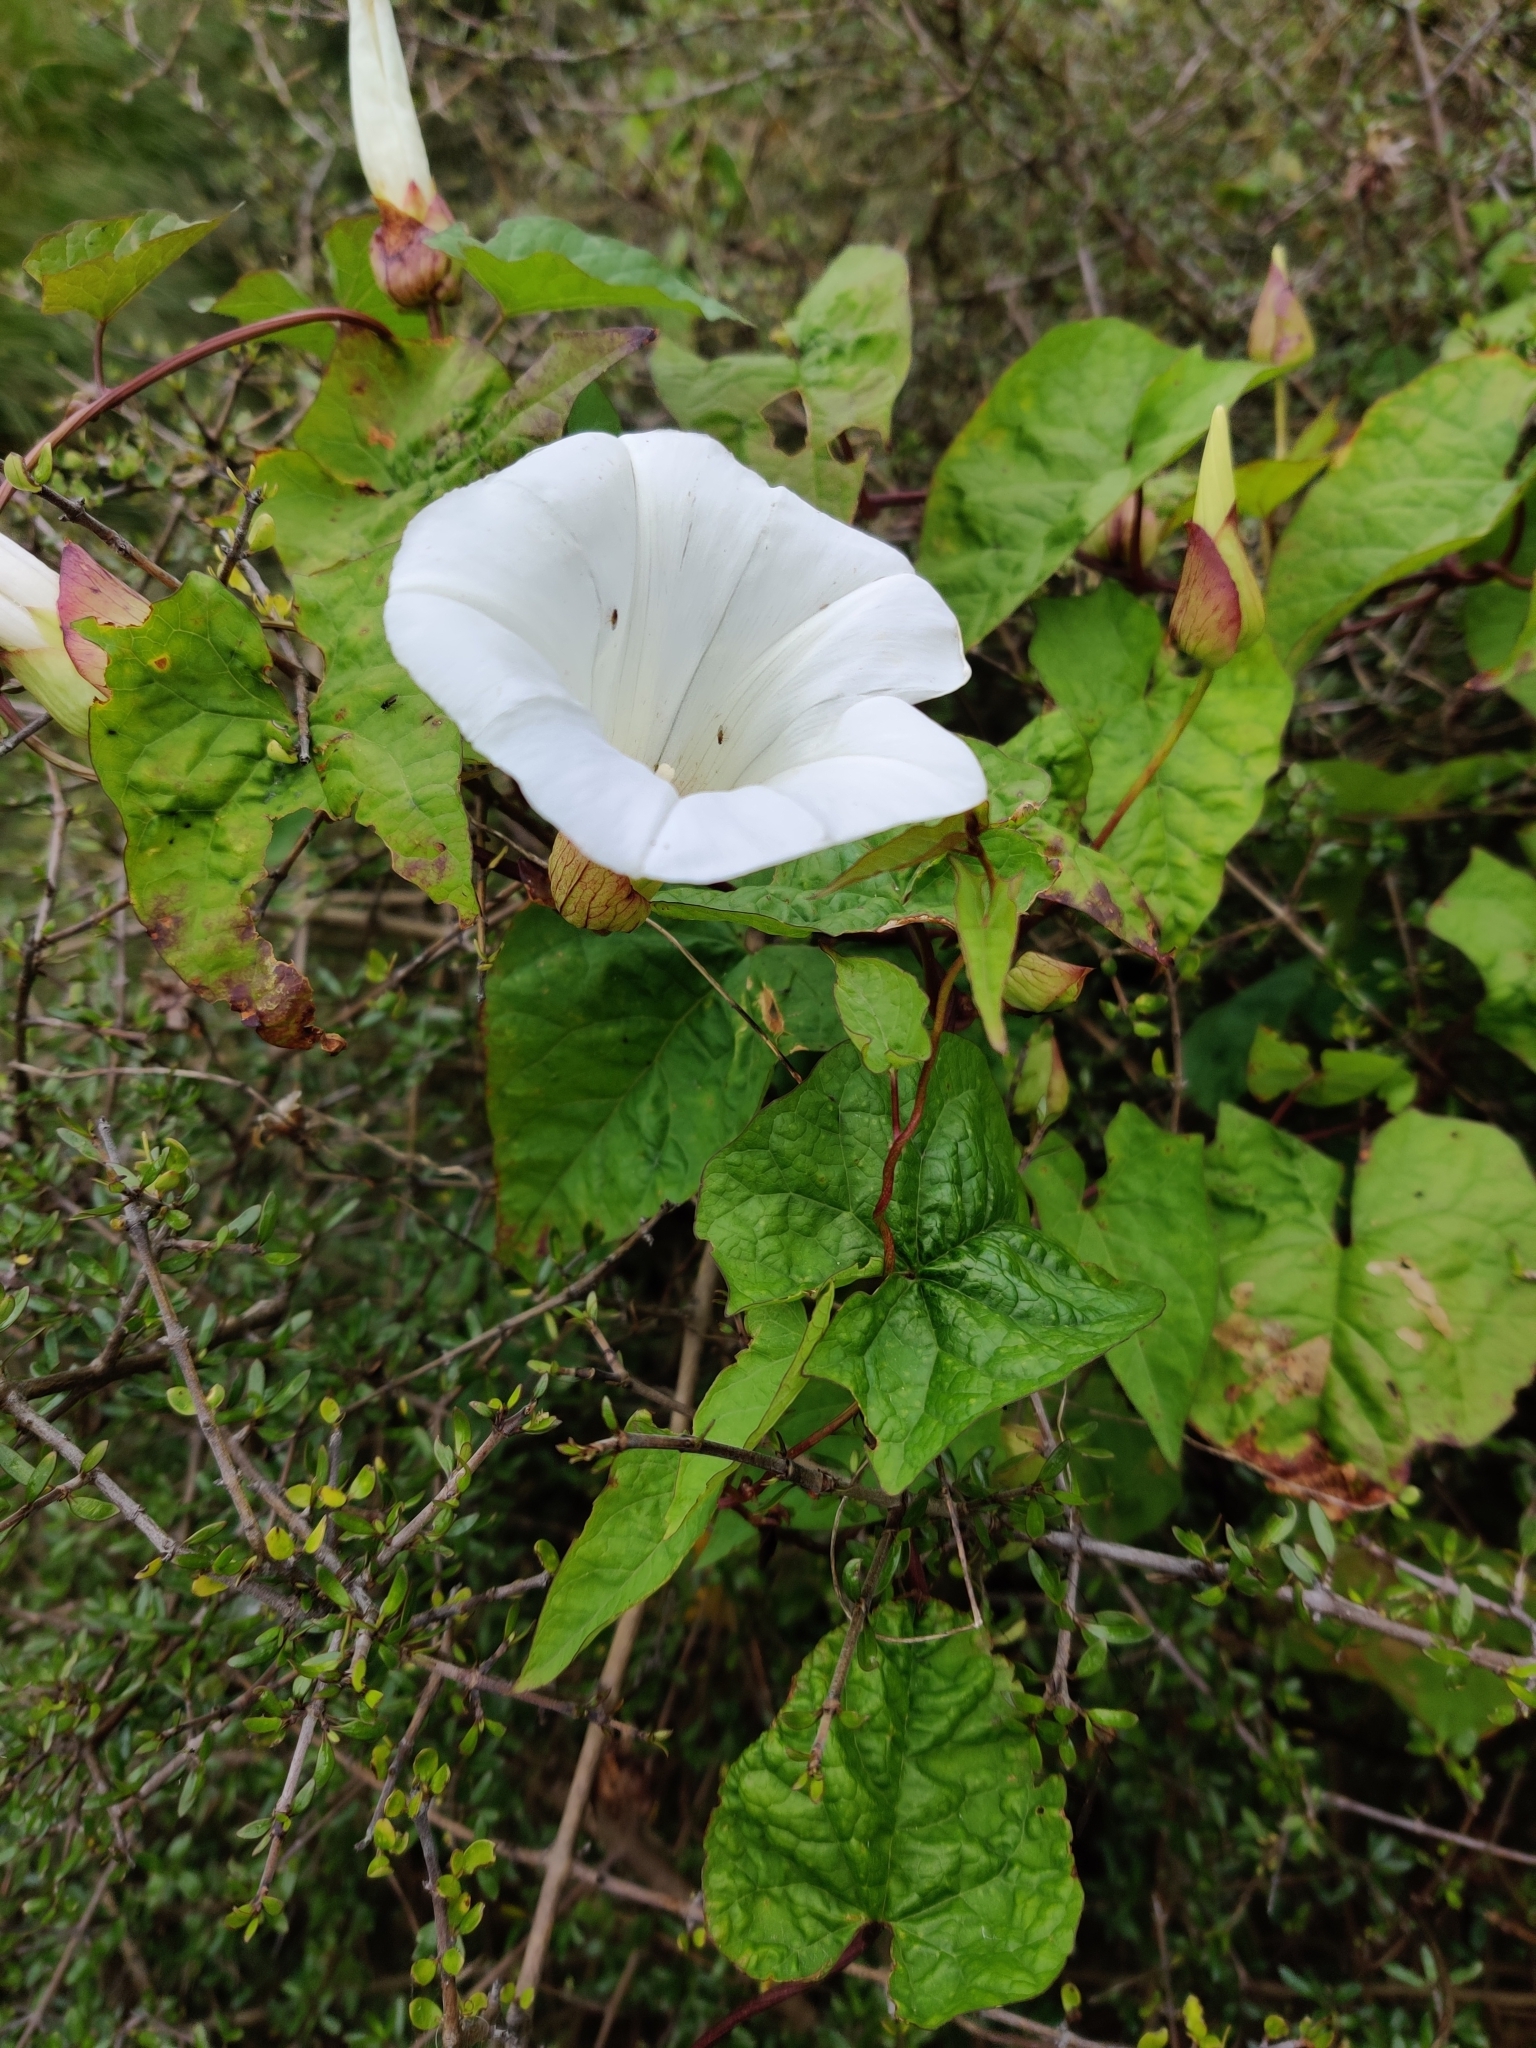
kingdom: Plantae
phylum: Tracheophyta
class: Magnoliopsida
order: Solanales
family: Convolvulaceae
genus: Calystegia
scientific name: Calystegia silvatica
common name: Large bindweed
